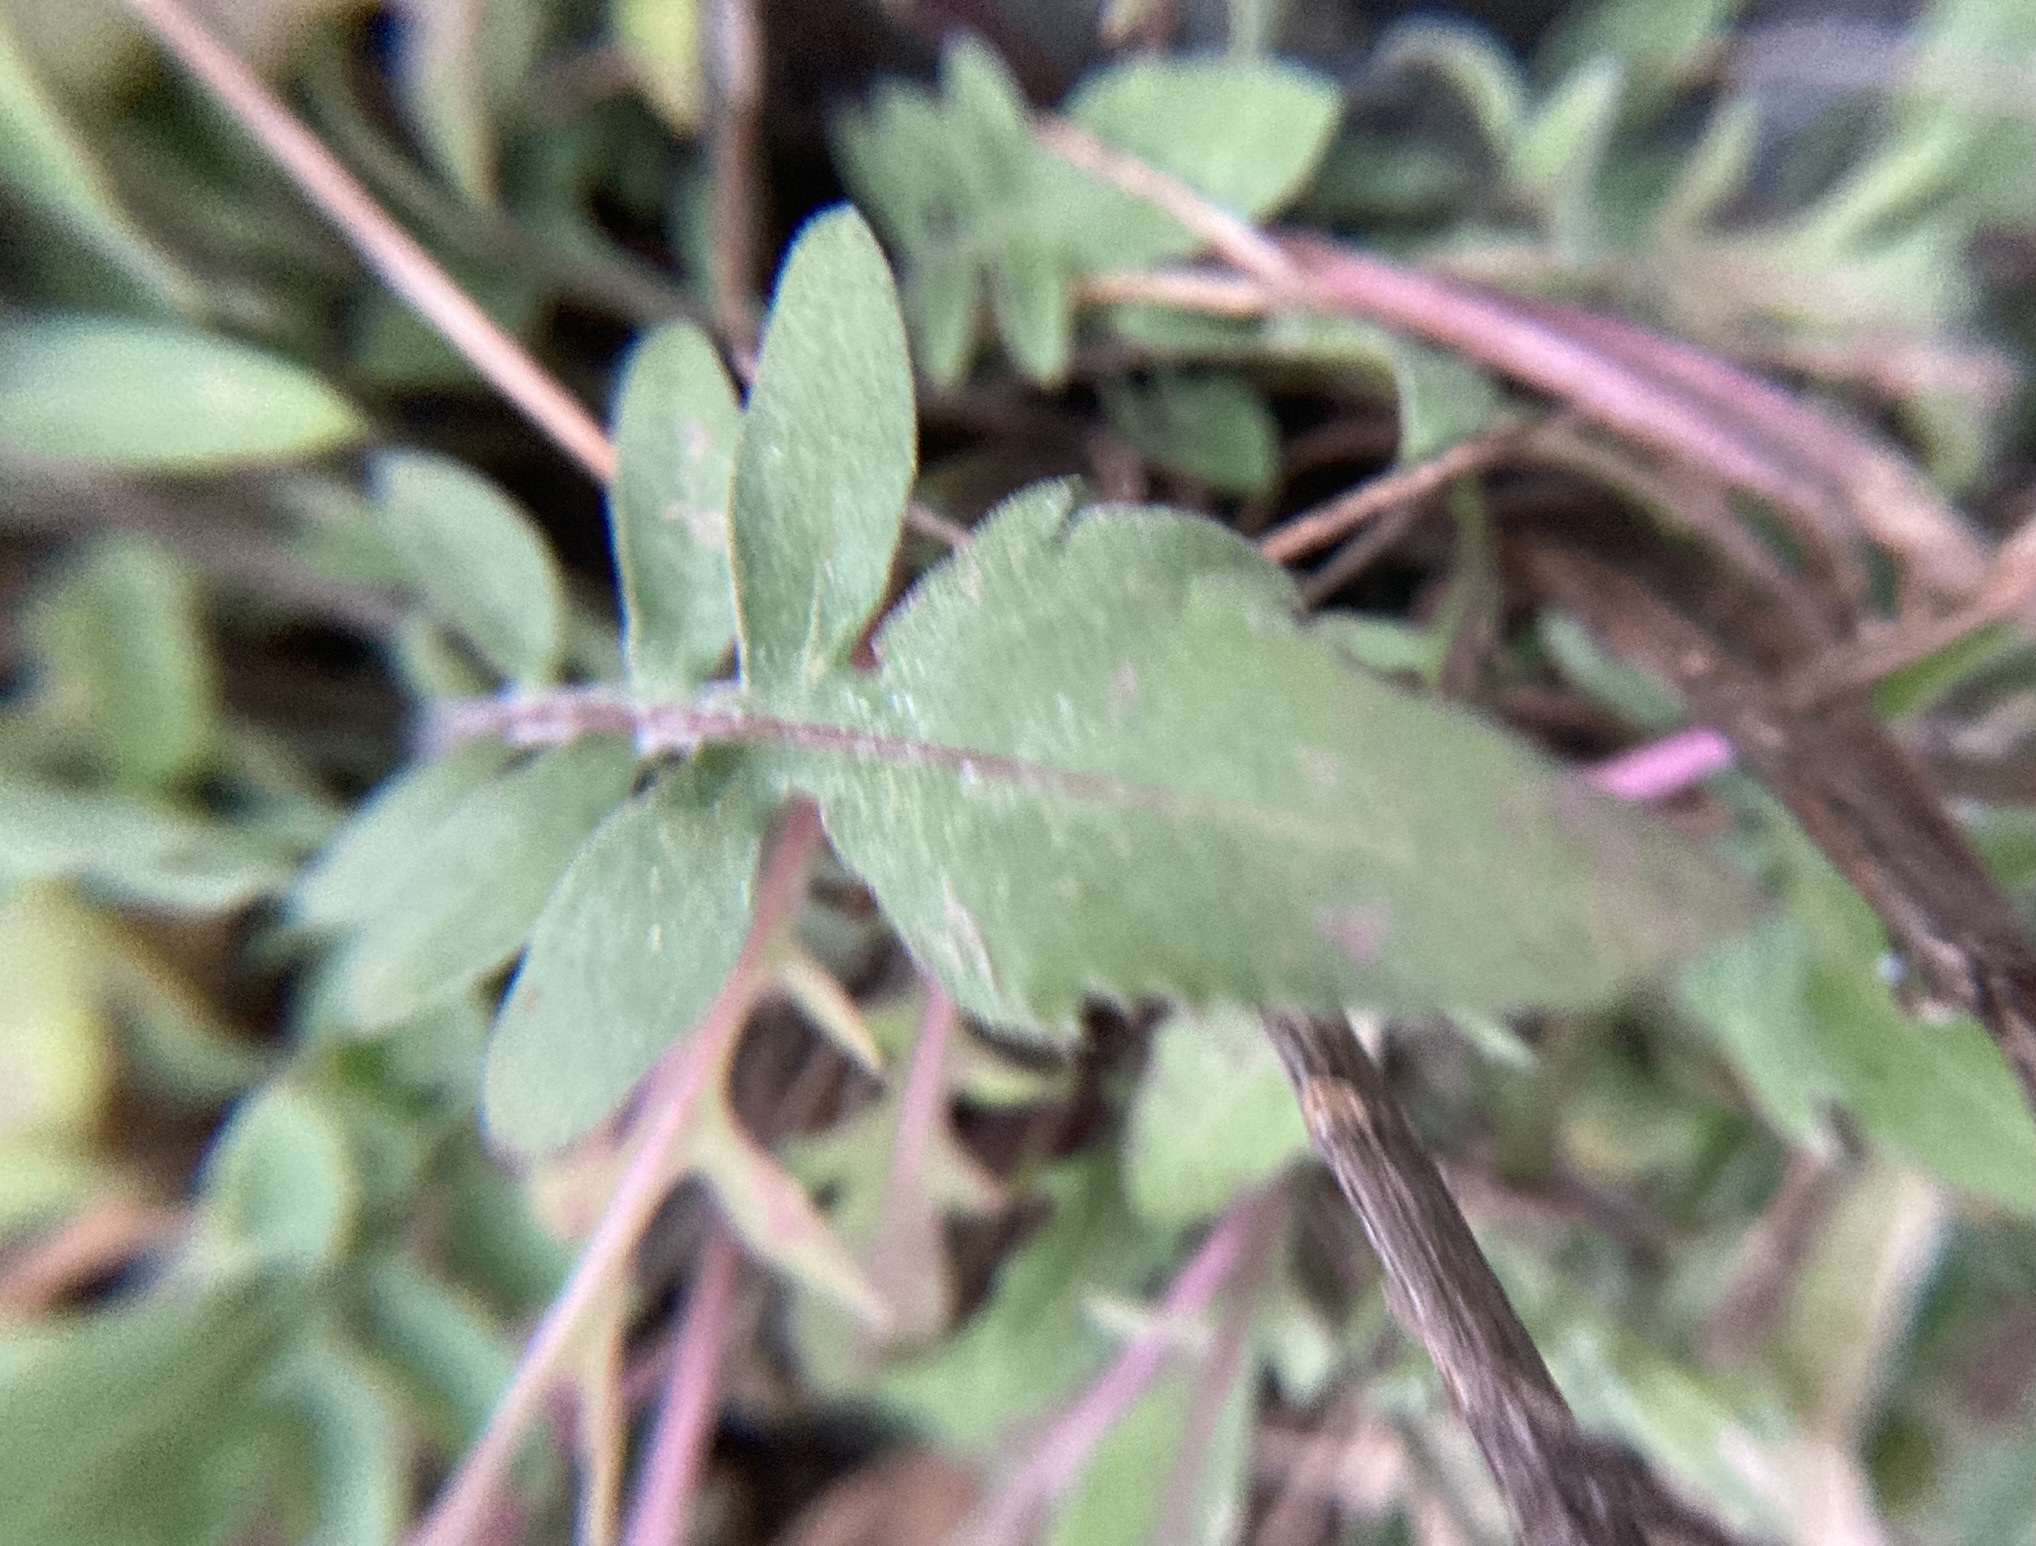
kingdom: Plantae
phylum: Tracheophyta
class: Magnoliopsida
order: Asterales
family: Asteraceae
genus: Centaurea
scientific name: Centaurea stoebe
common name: Spotted knapweed
